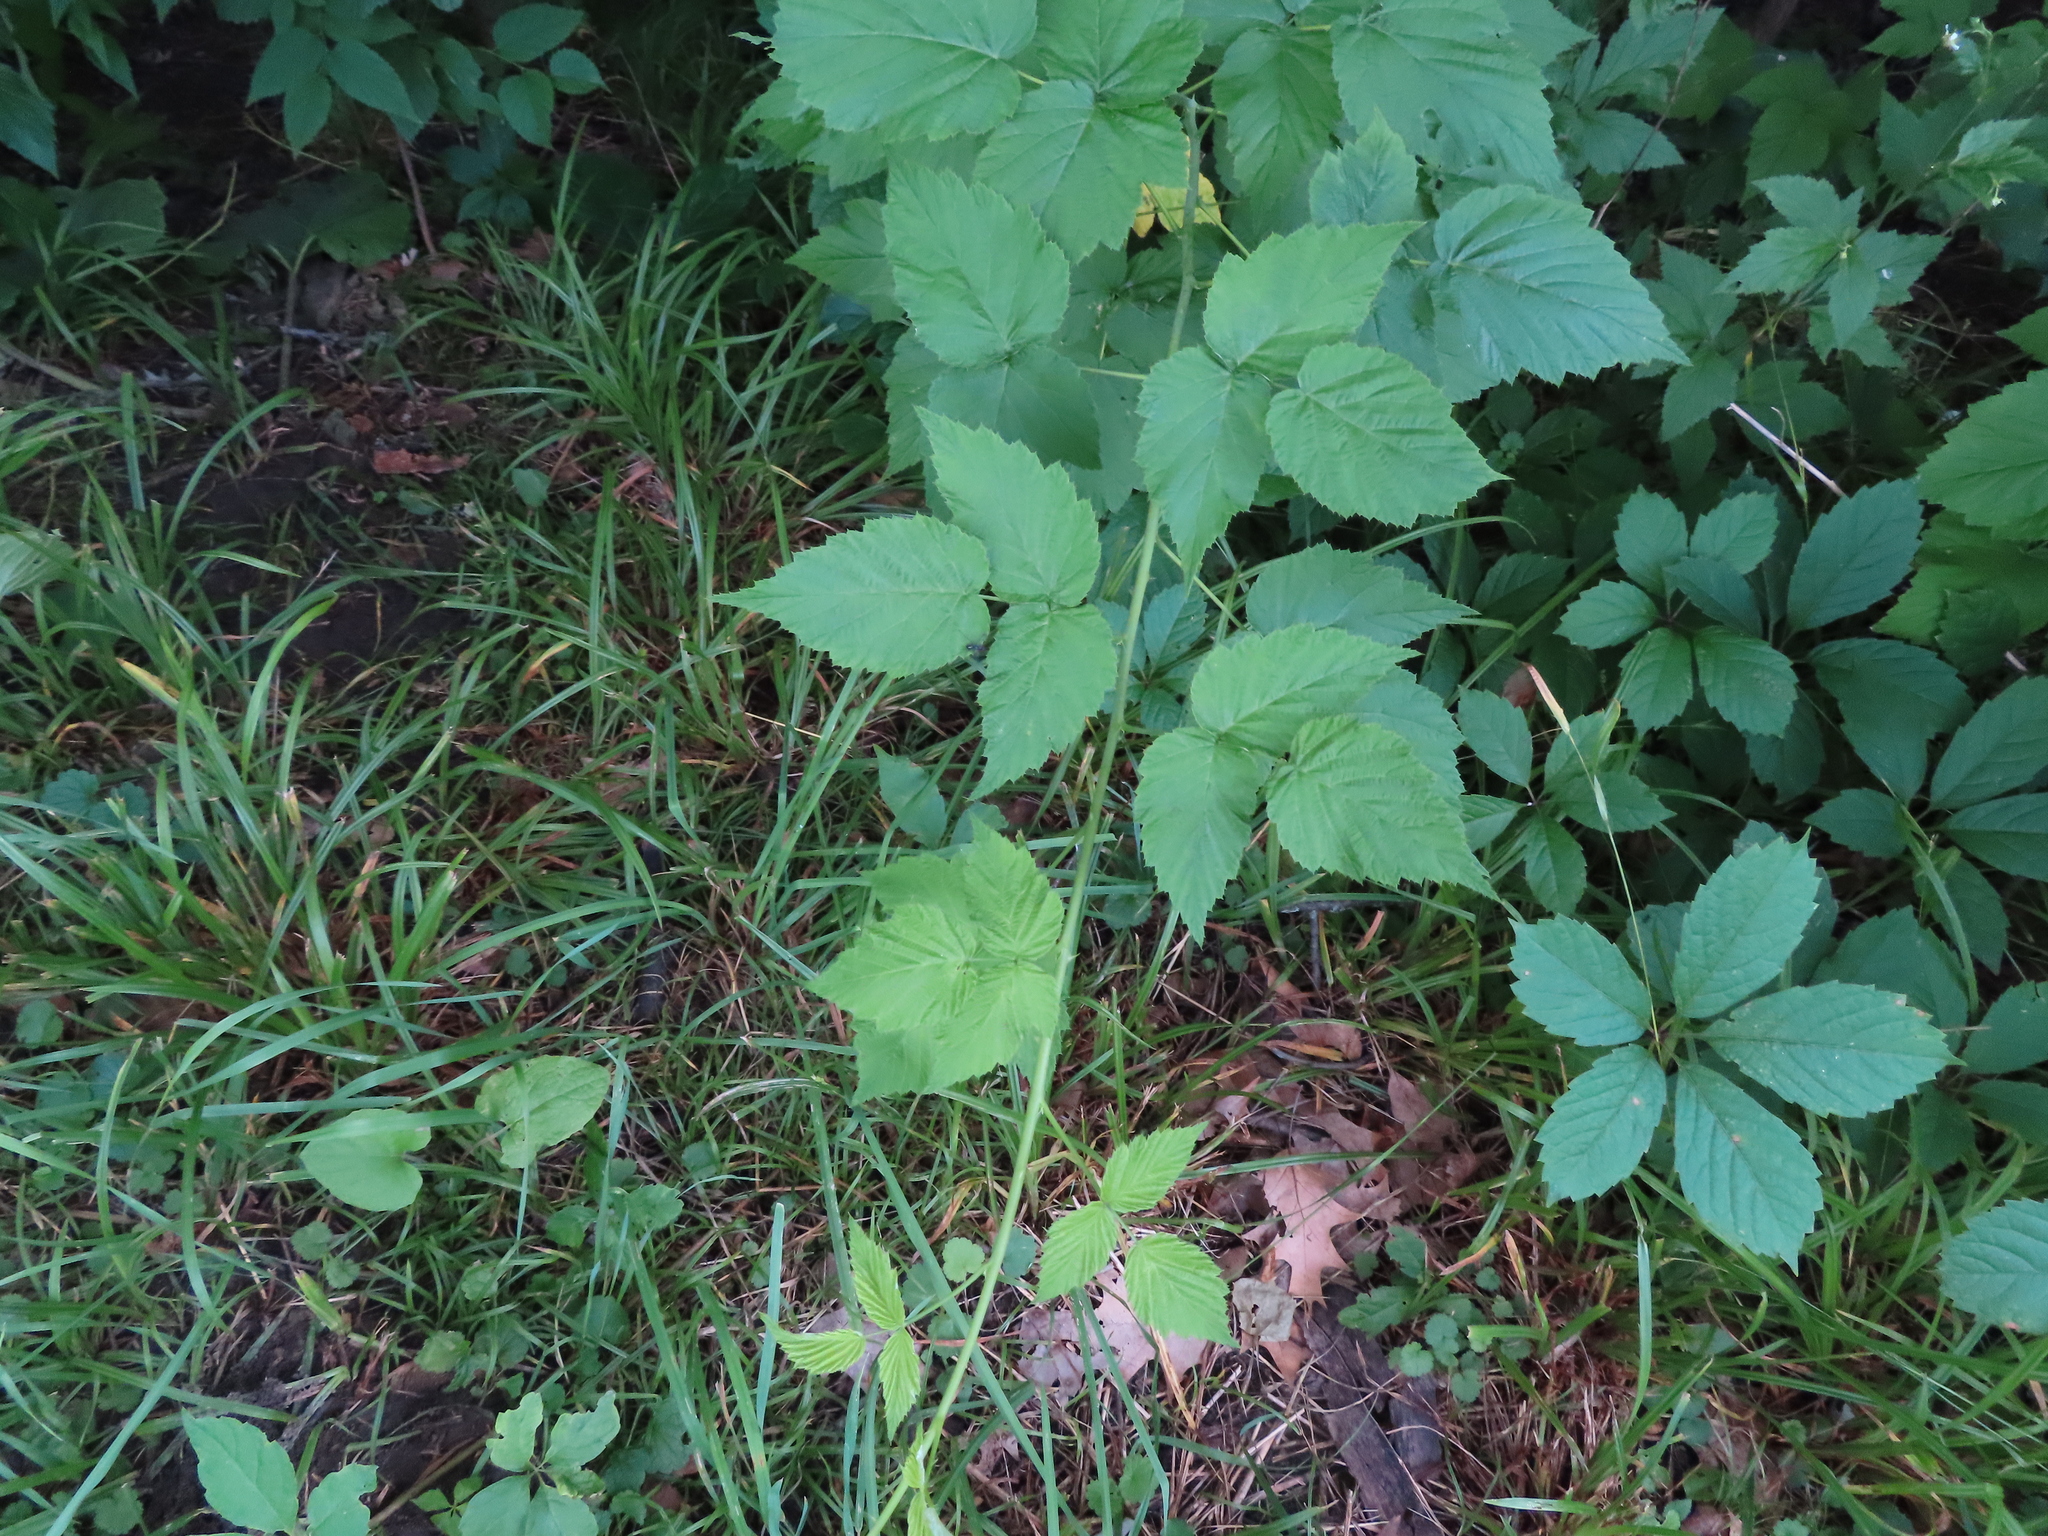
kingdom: Plantae
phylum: Tracheophyta
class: Magnoliopsida
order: Vitales
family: Vitaceae
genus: Parthenocissus
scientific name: Parthenocissus inserta
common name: False virginia-creeper
